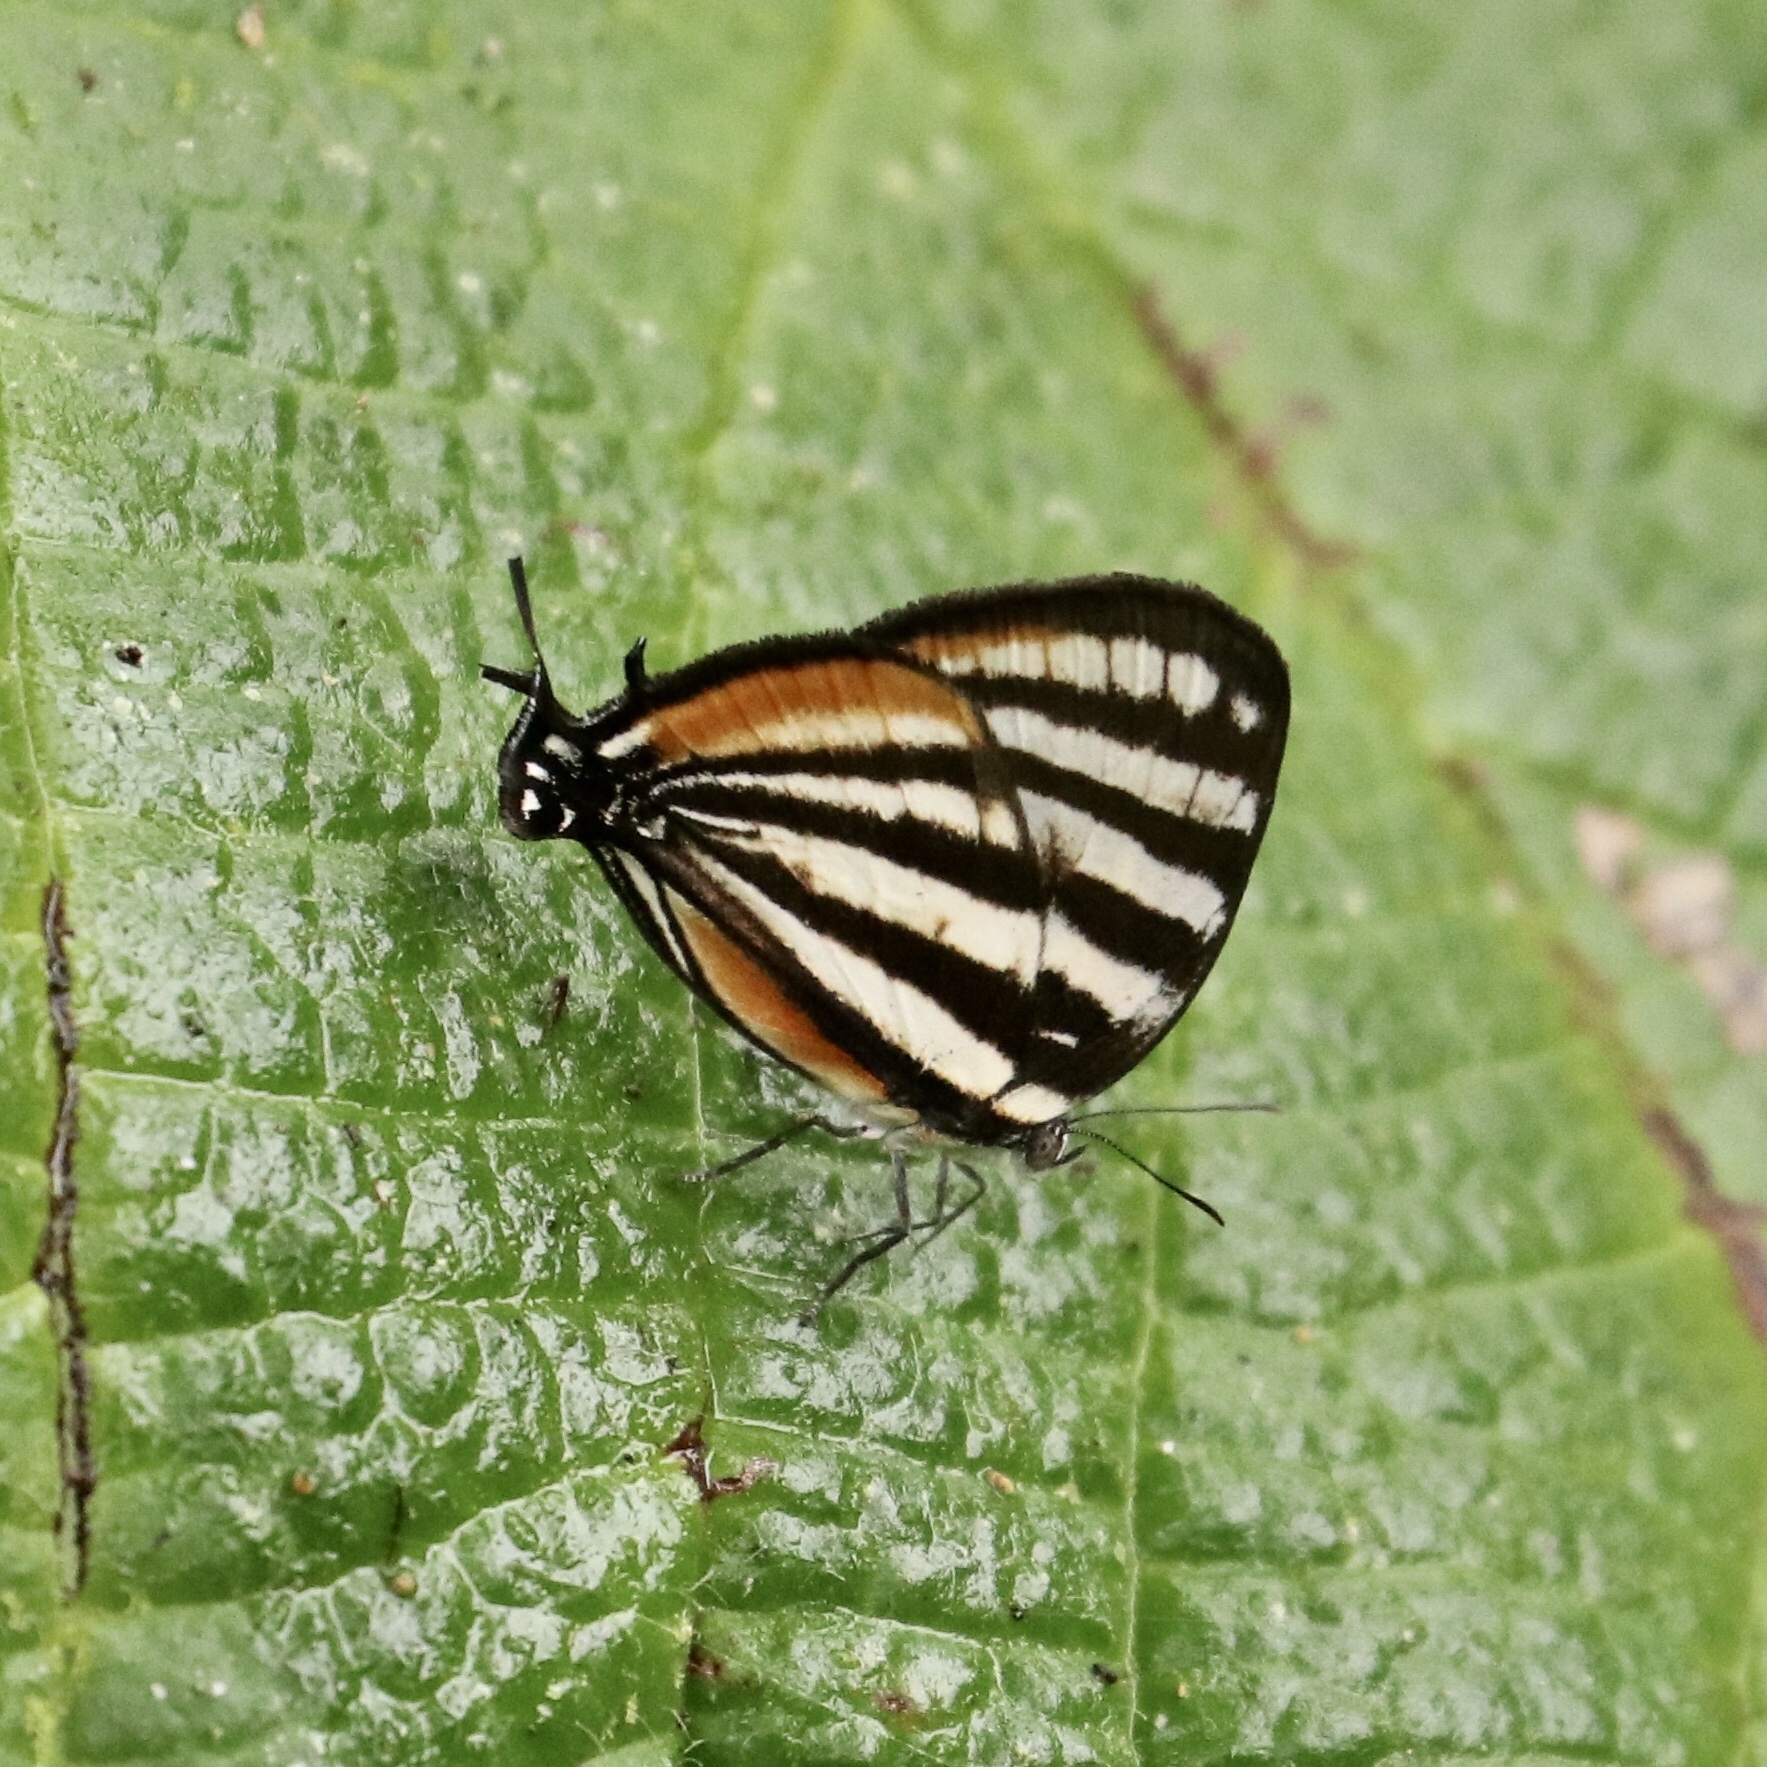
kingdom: Animalia
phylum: Arthropoda
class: Insecta
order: Lepidoptera
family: Lycaenidae
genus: Arawacus
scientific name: Arawacus lincoides
